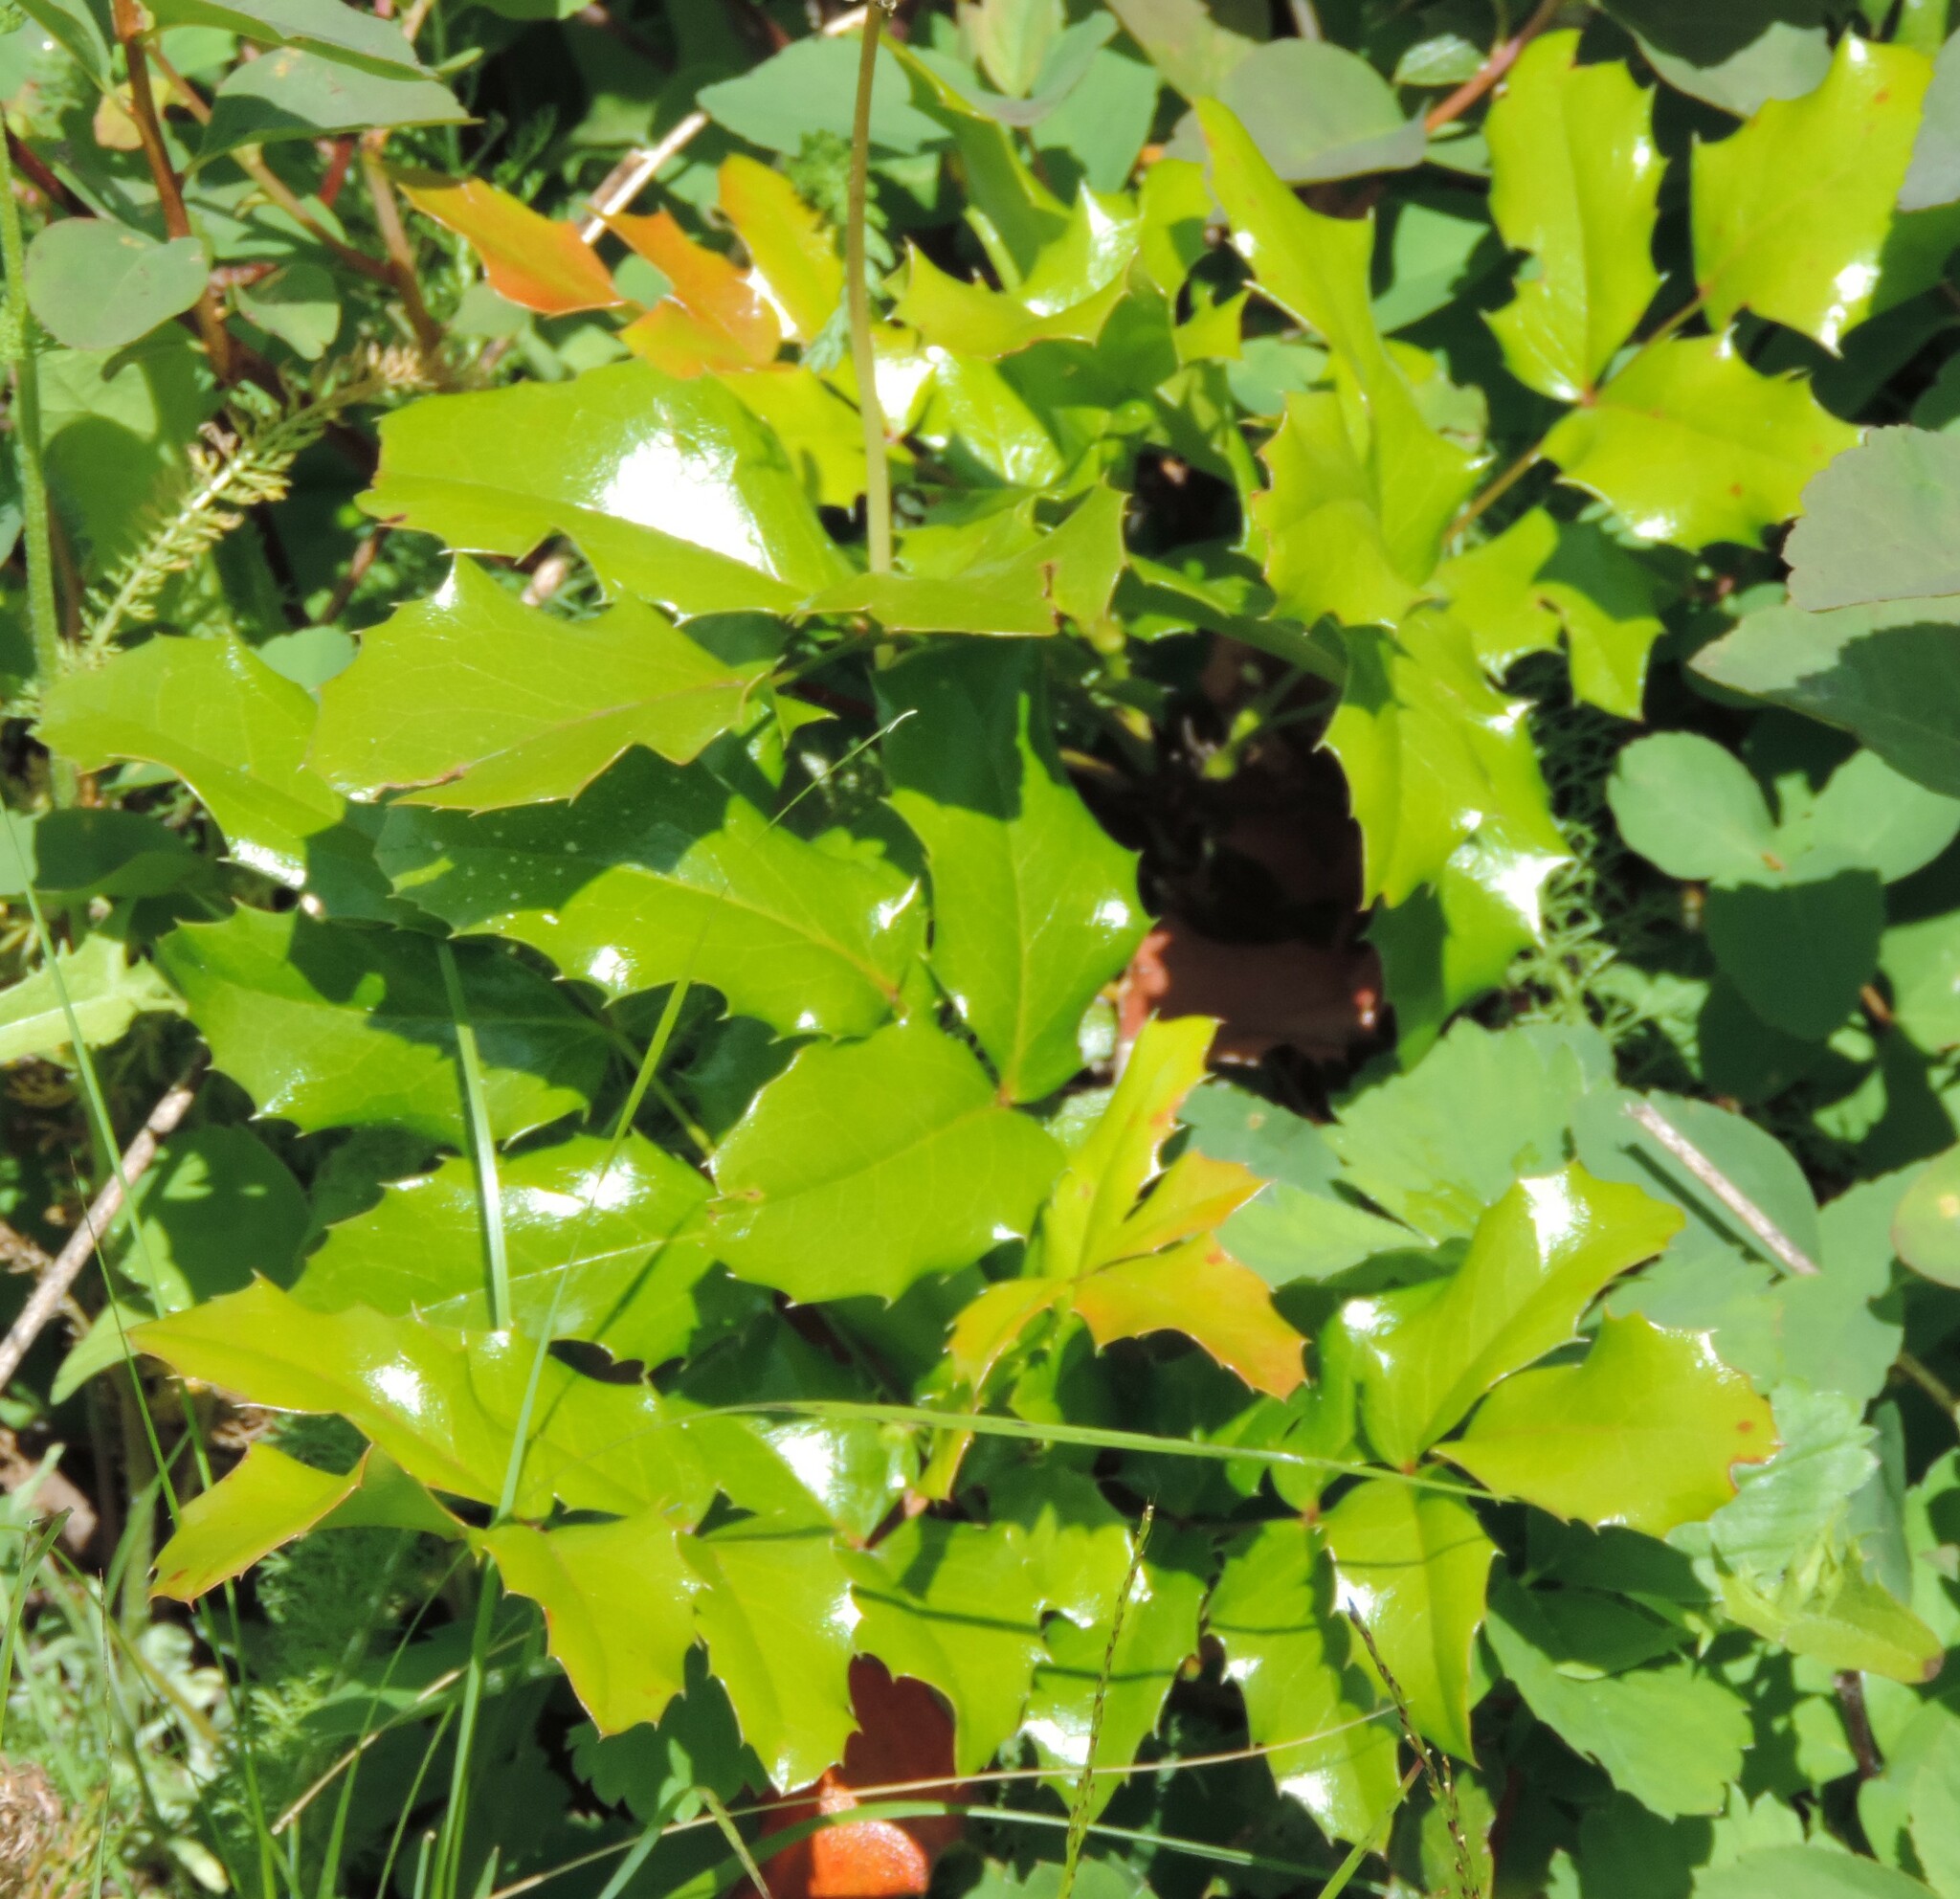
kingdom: Plantae
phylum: Tracheophyta
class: Magnoliopsida
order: Ranunculales
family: Berberidaceae
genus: Mahonia
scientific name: Mahonia aquifolium
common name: Oregon-grape
